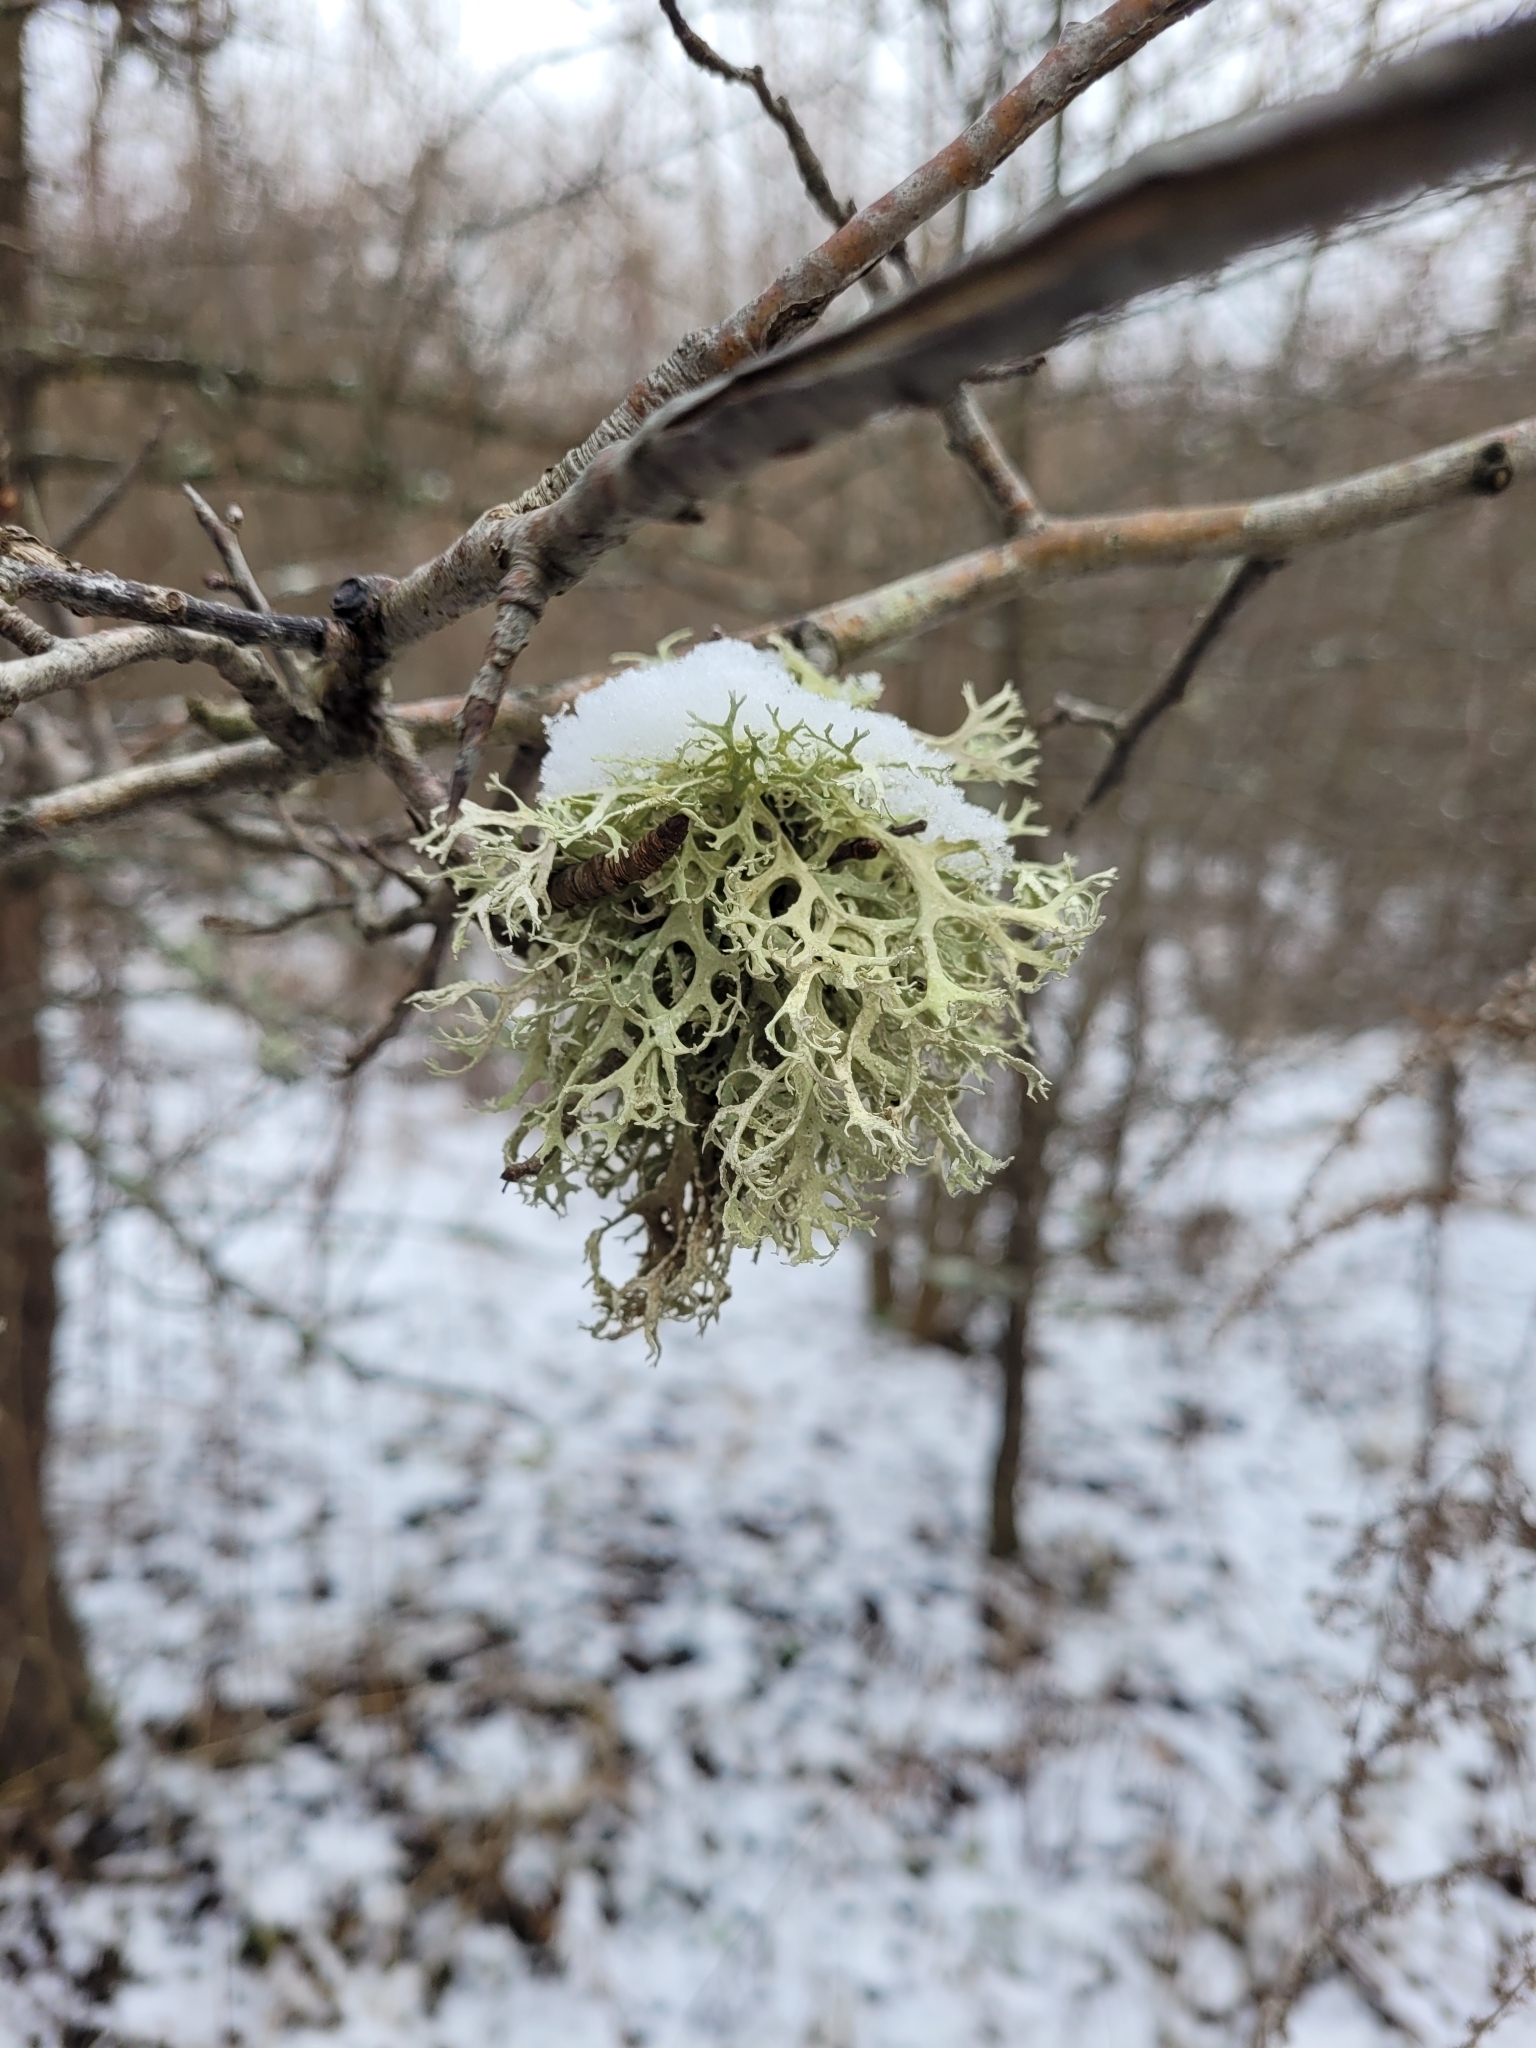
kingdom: Fungi
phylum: Ascomycota
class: Lecanoromycetes
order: Lecanorales
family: Parmeliaceae
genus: Evernia
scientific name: Evernia prunastri
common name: Oak moss
